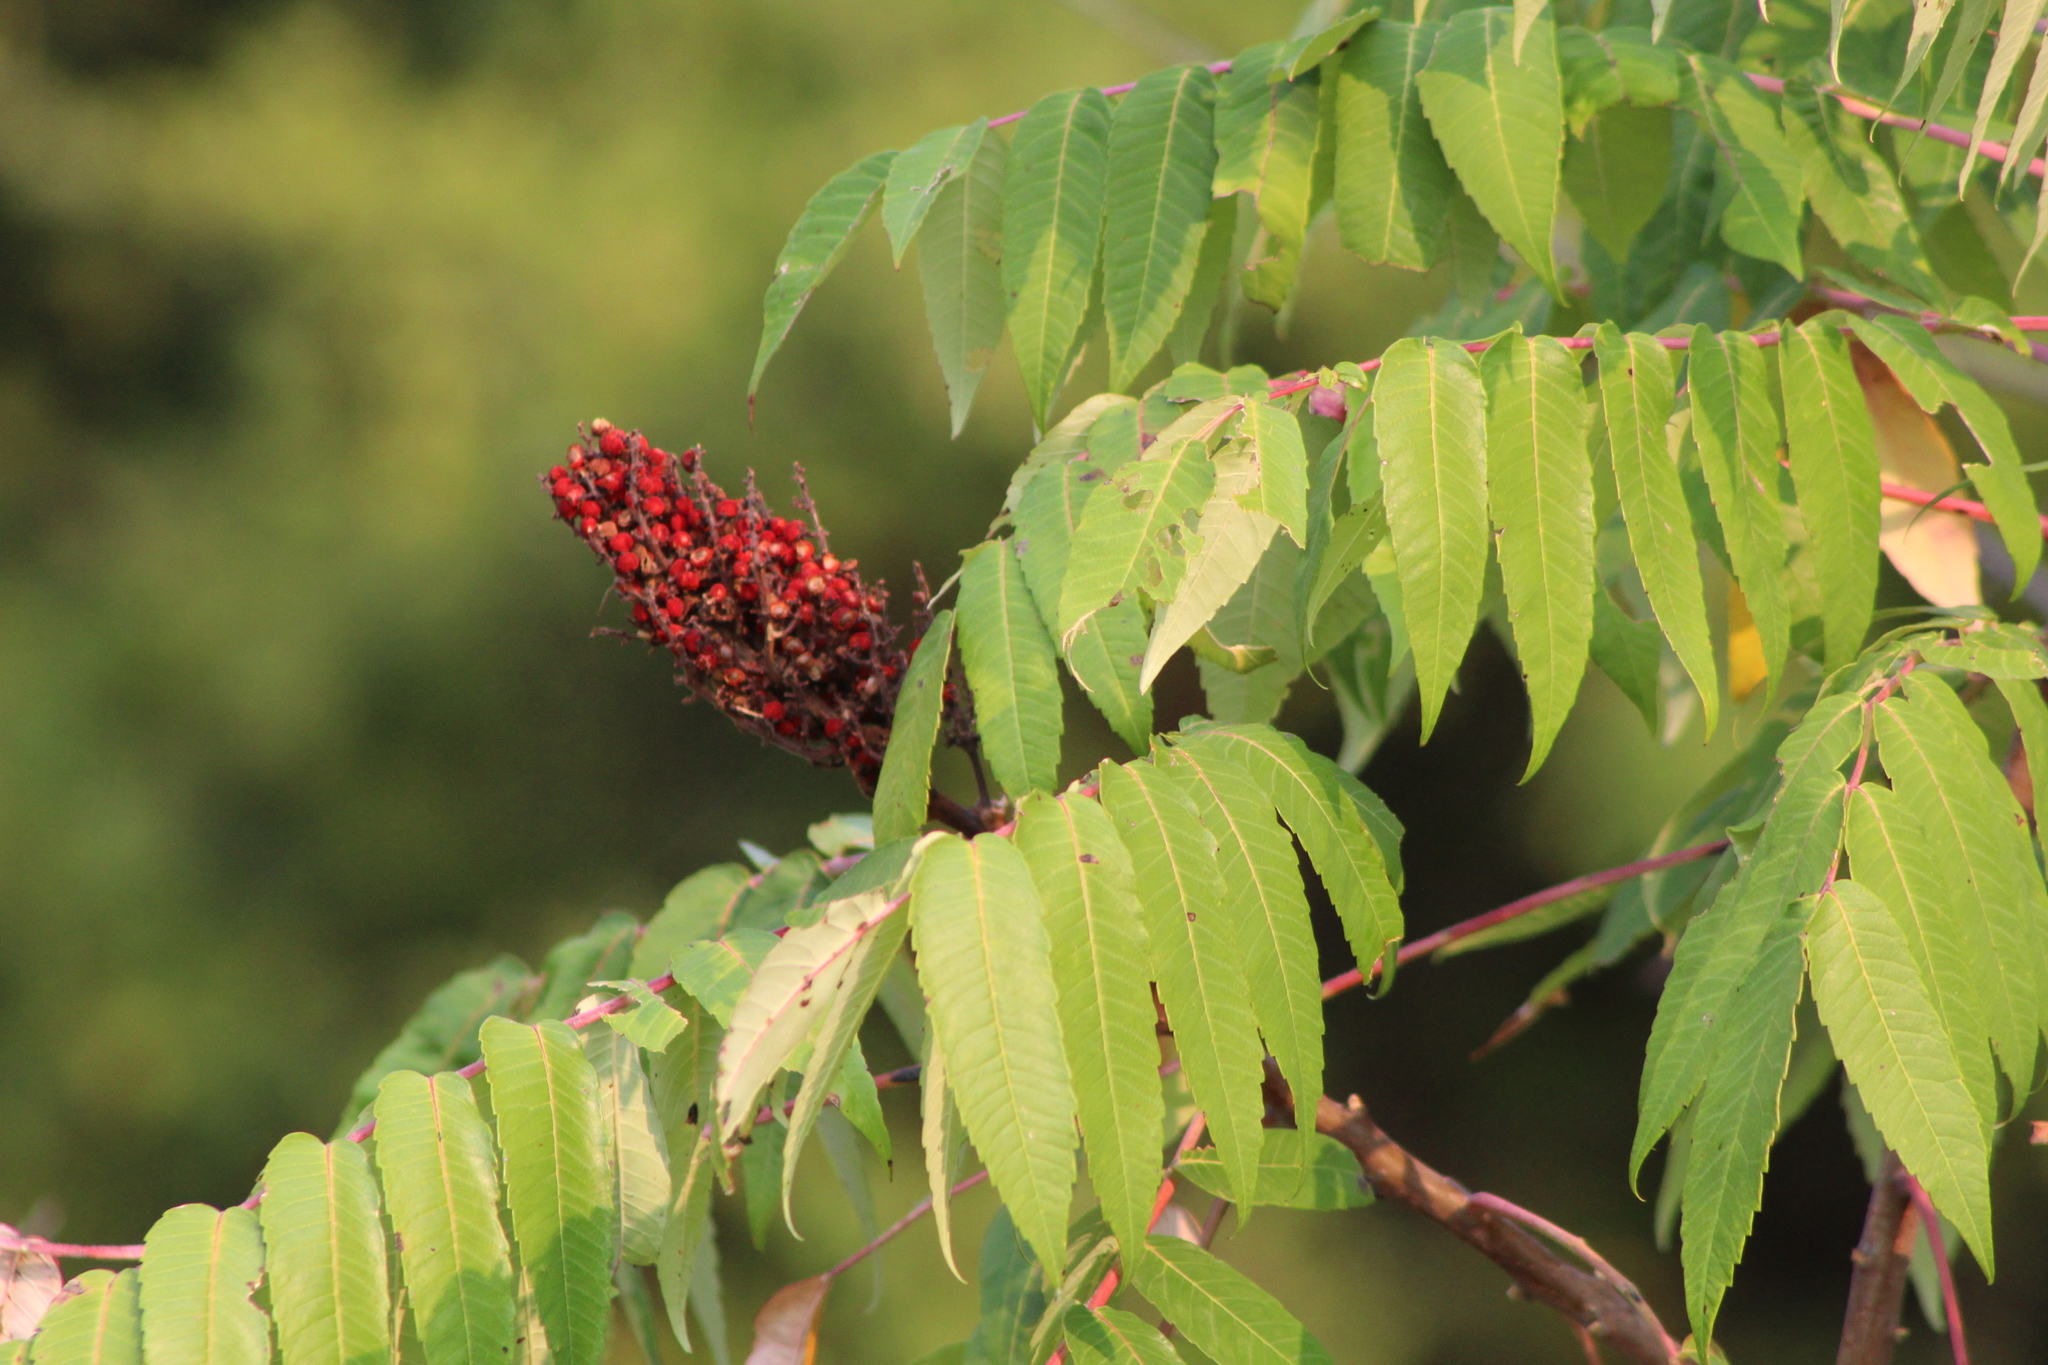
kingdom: Plantae
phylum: Tracheophyta
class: Magnoliopsida
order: Sapindales
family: Anacardiaceae
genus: Rhus
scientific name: Rhus glabra
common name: Scarlet sumac
